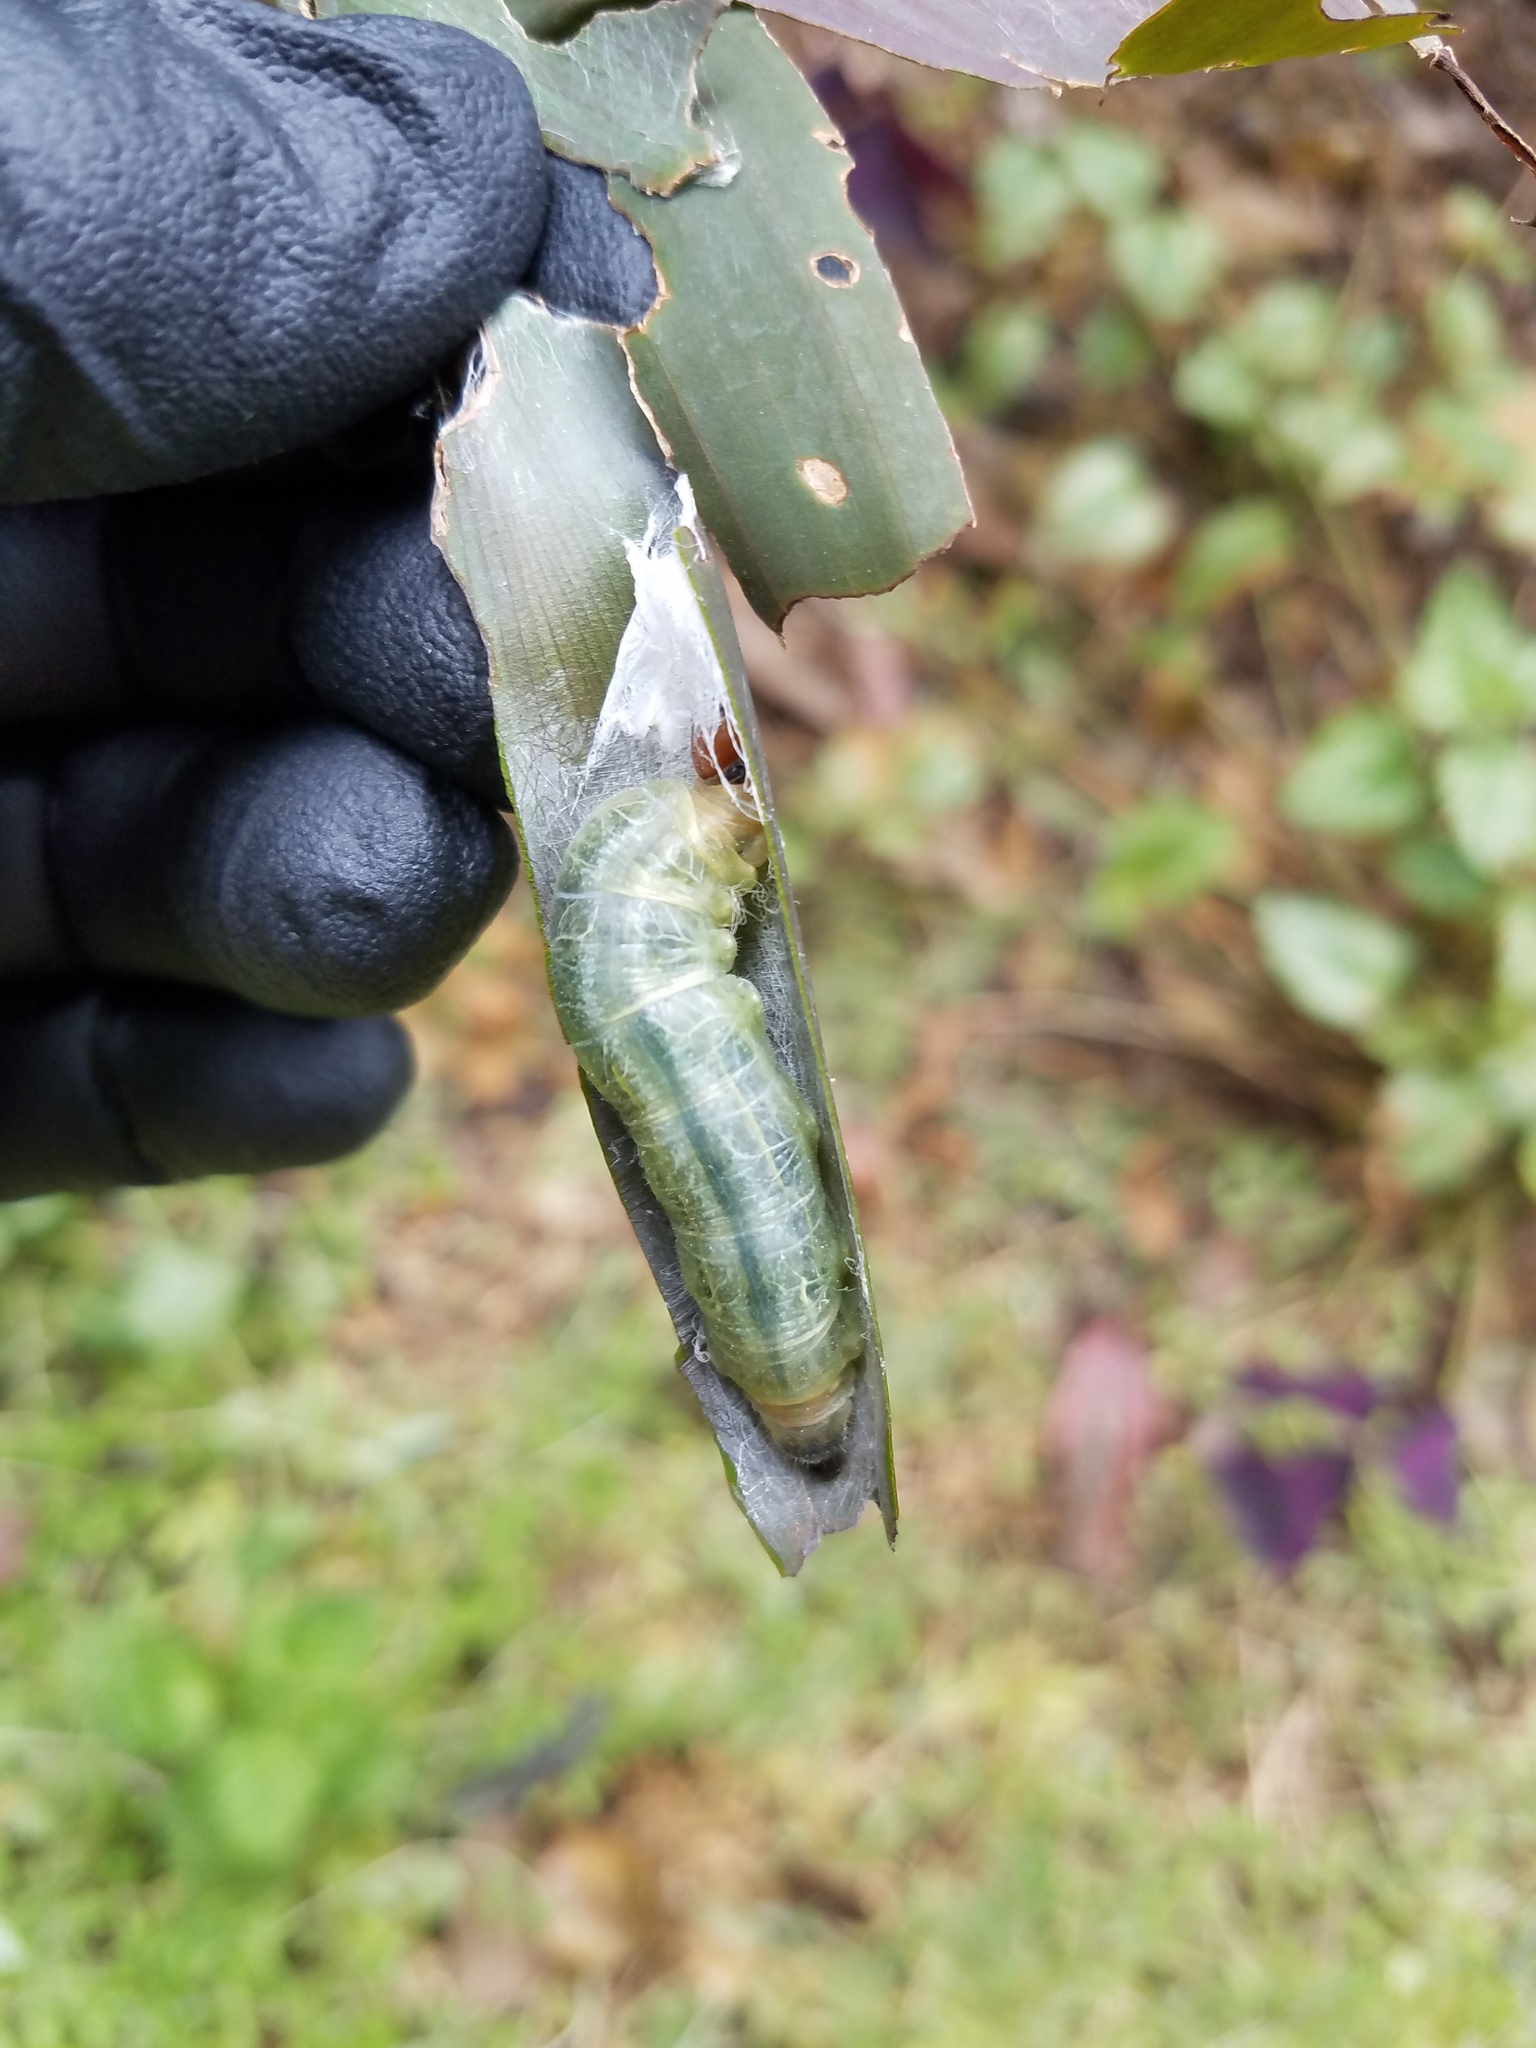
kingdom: Animalia
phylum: Arthropoda
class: Insecta
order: Lepidoptera
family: Hesperiidae
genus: Calpodes
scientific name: Calpodes ethlius
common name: Brazilian skipper
